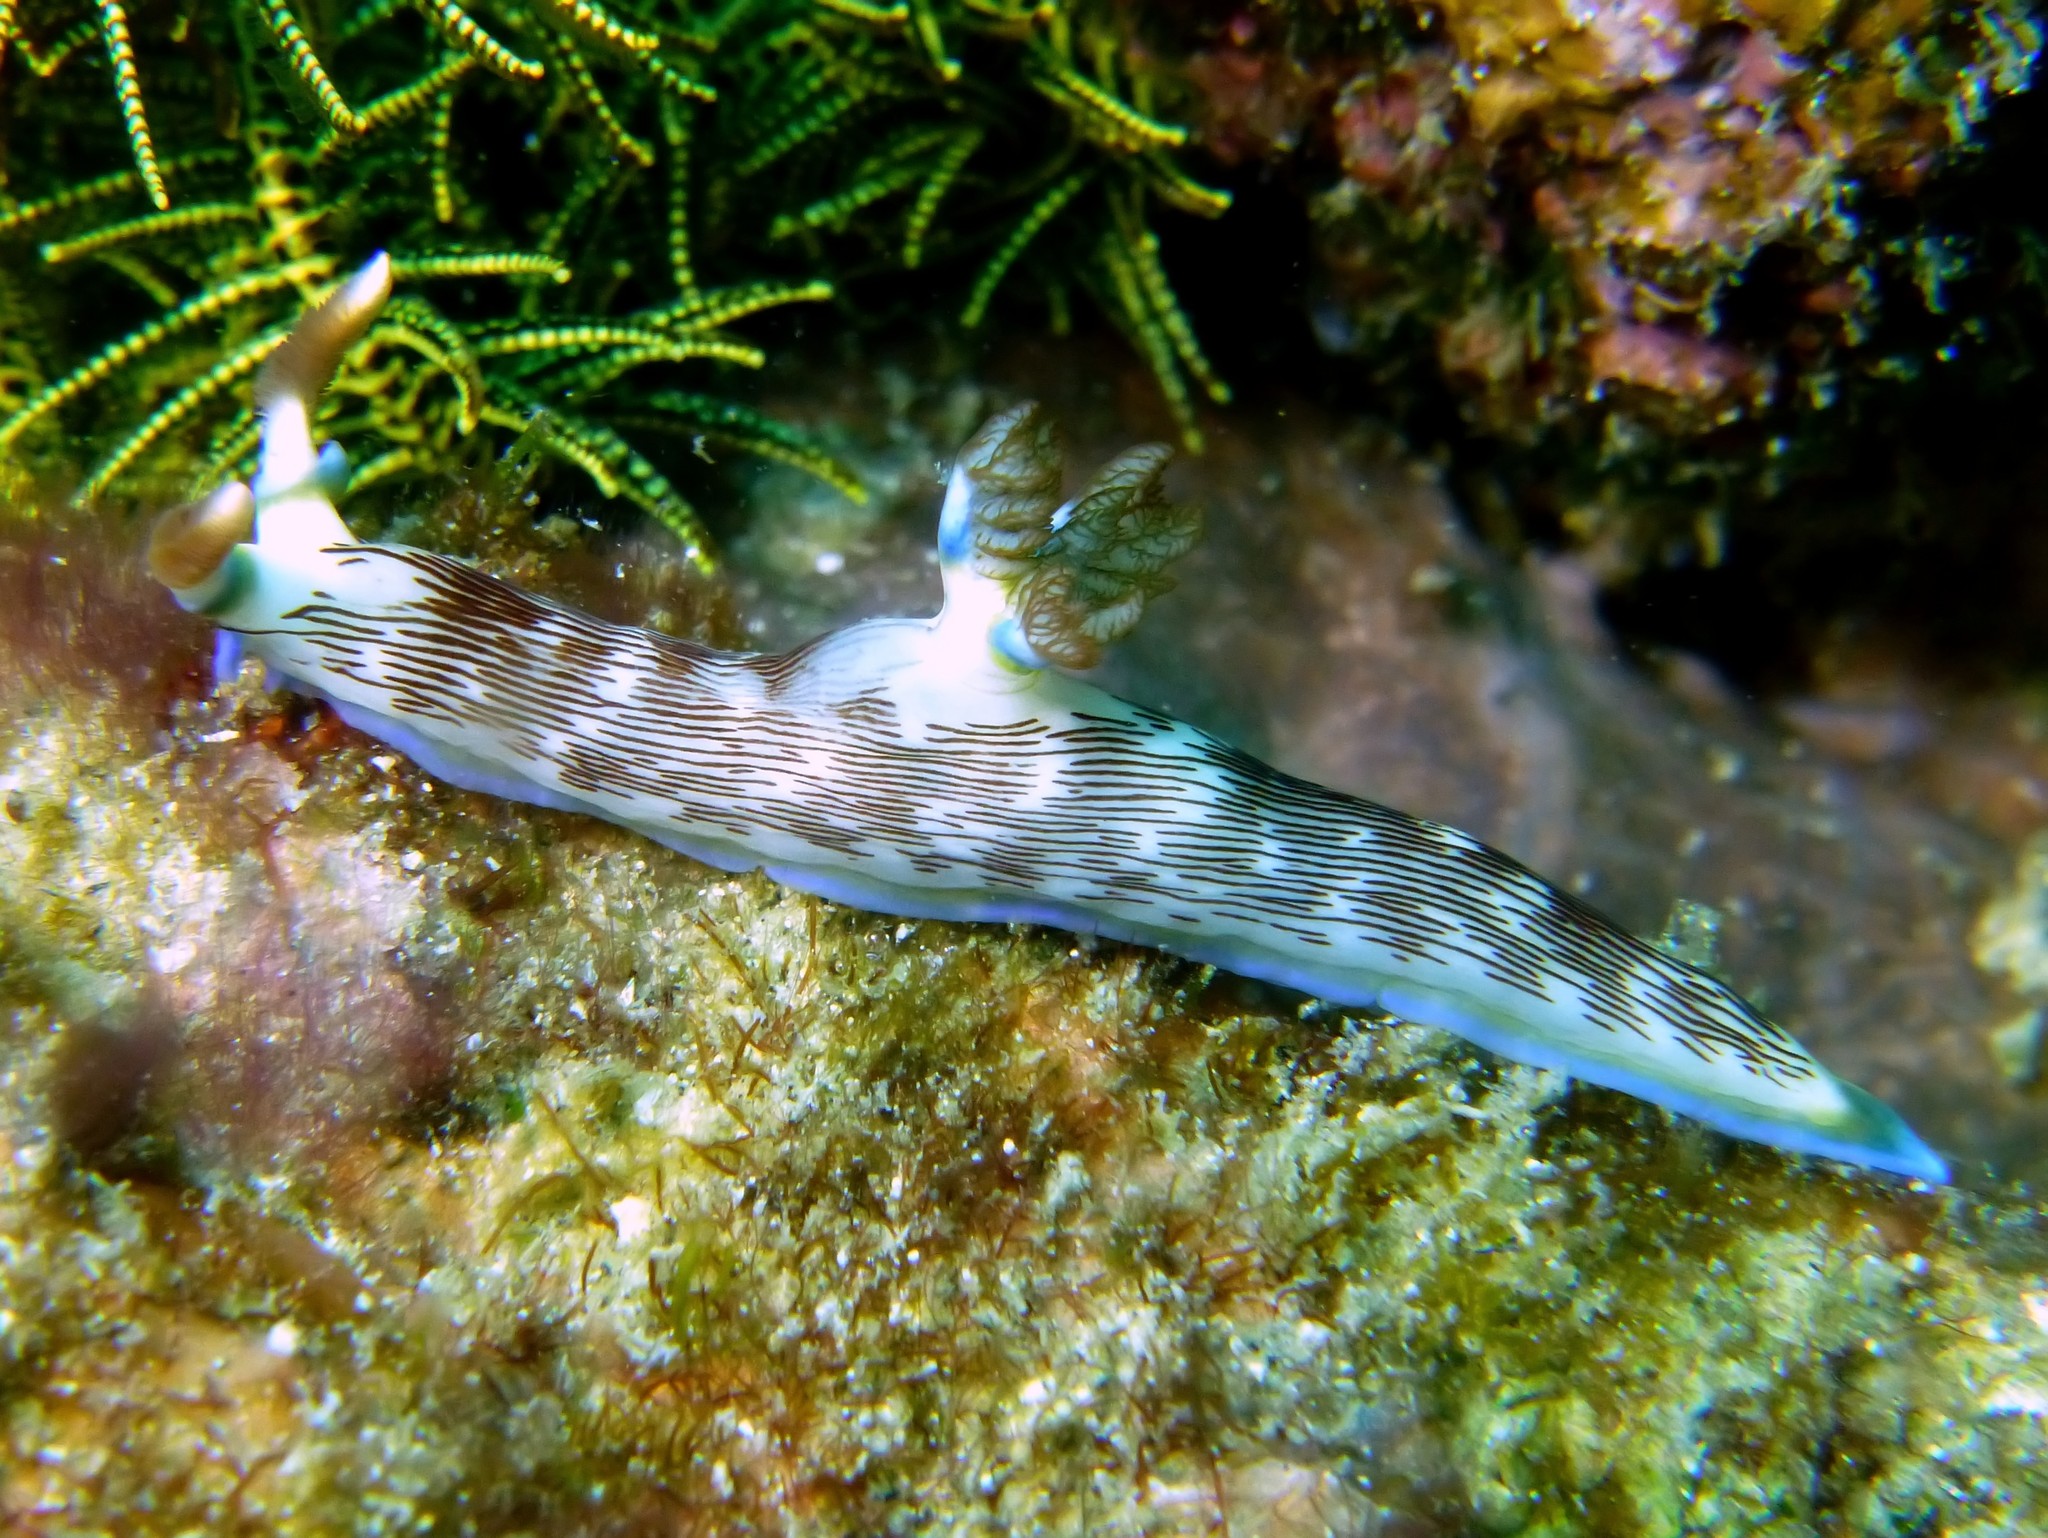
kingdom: Animalia
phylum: Mollusca
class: Gastropoda
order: Nudibranchia
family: Polyceridae
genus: Nembrotha
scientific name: Nembrotha lineolata
